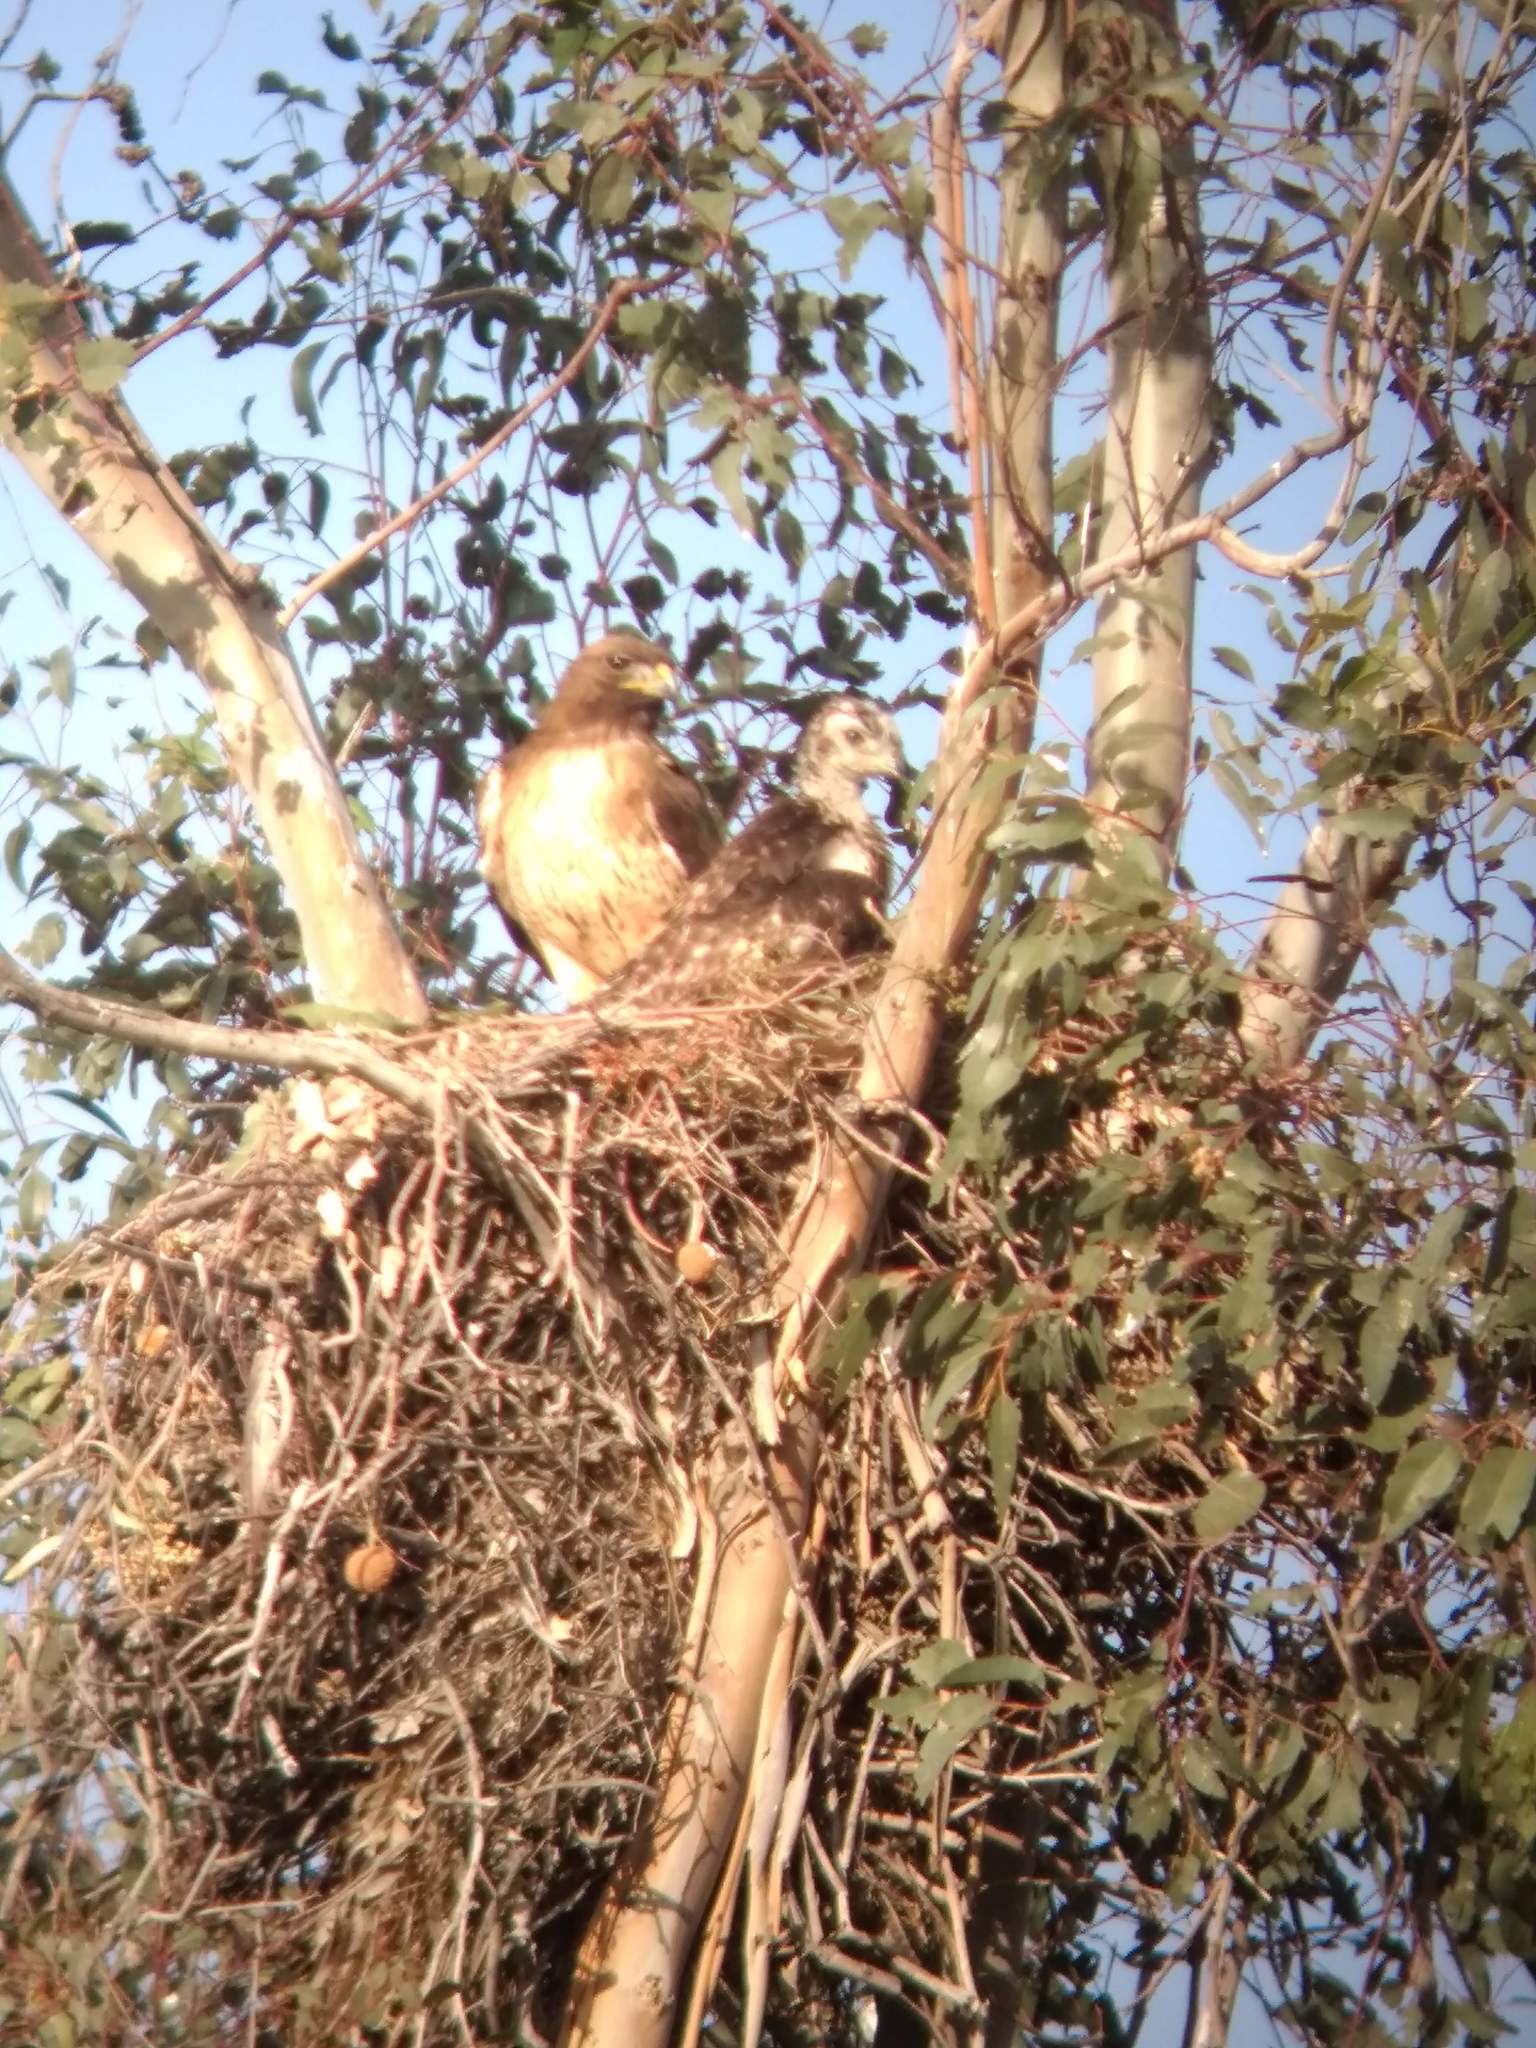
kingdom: Animalia
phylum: Chordata
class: Aves
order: Accipitriformes
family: Accipitridae
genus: Buteo
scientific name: Buteo jamaicensis
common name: Red-tailed hawk
